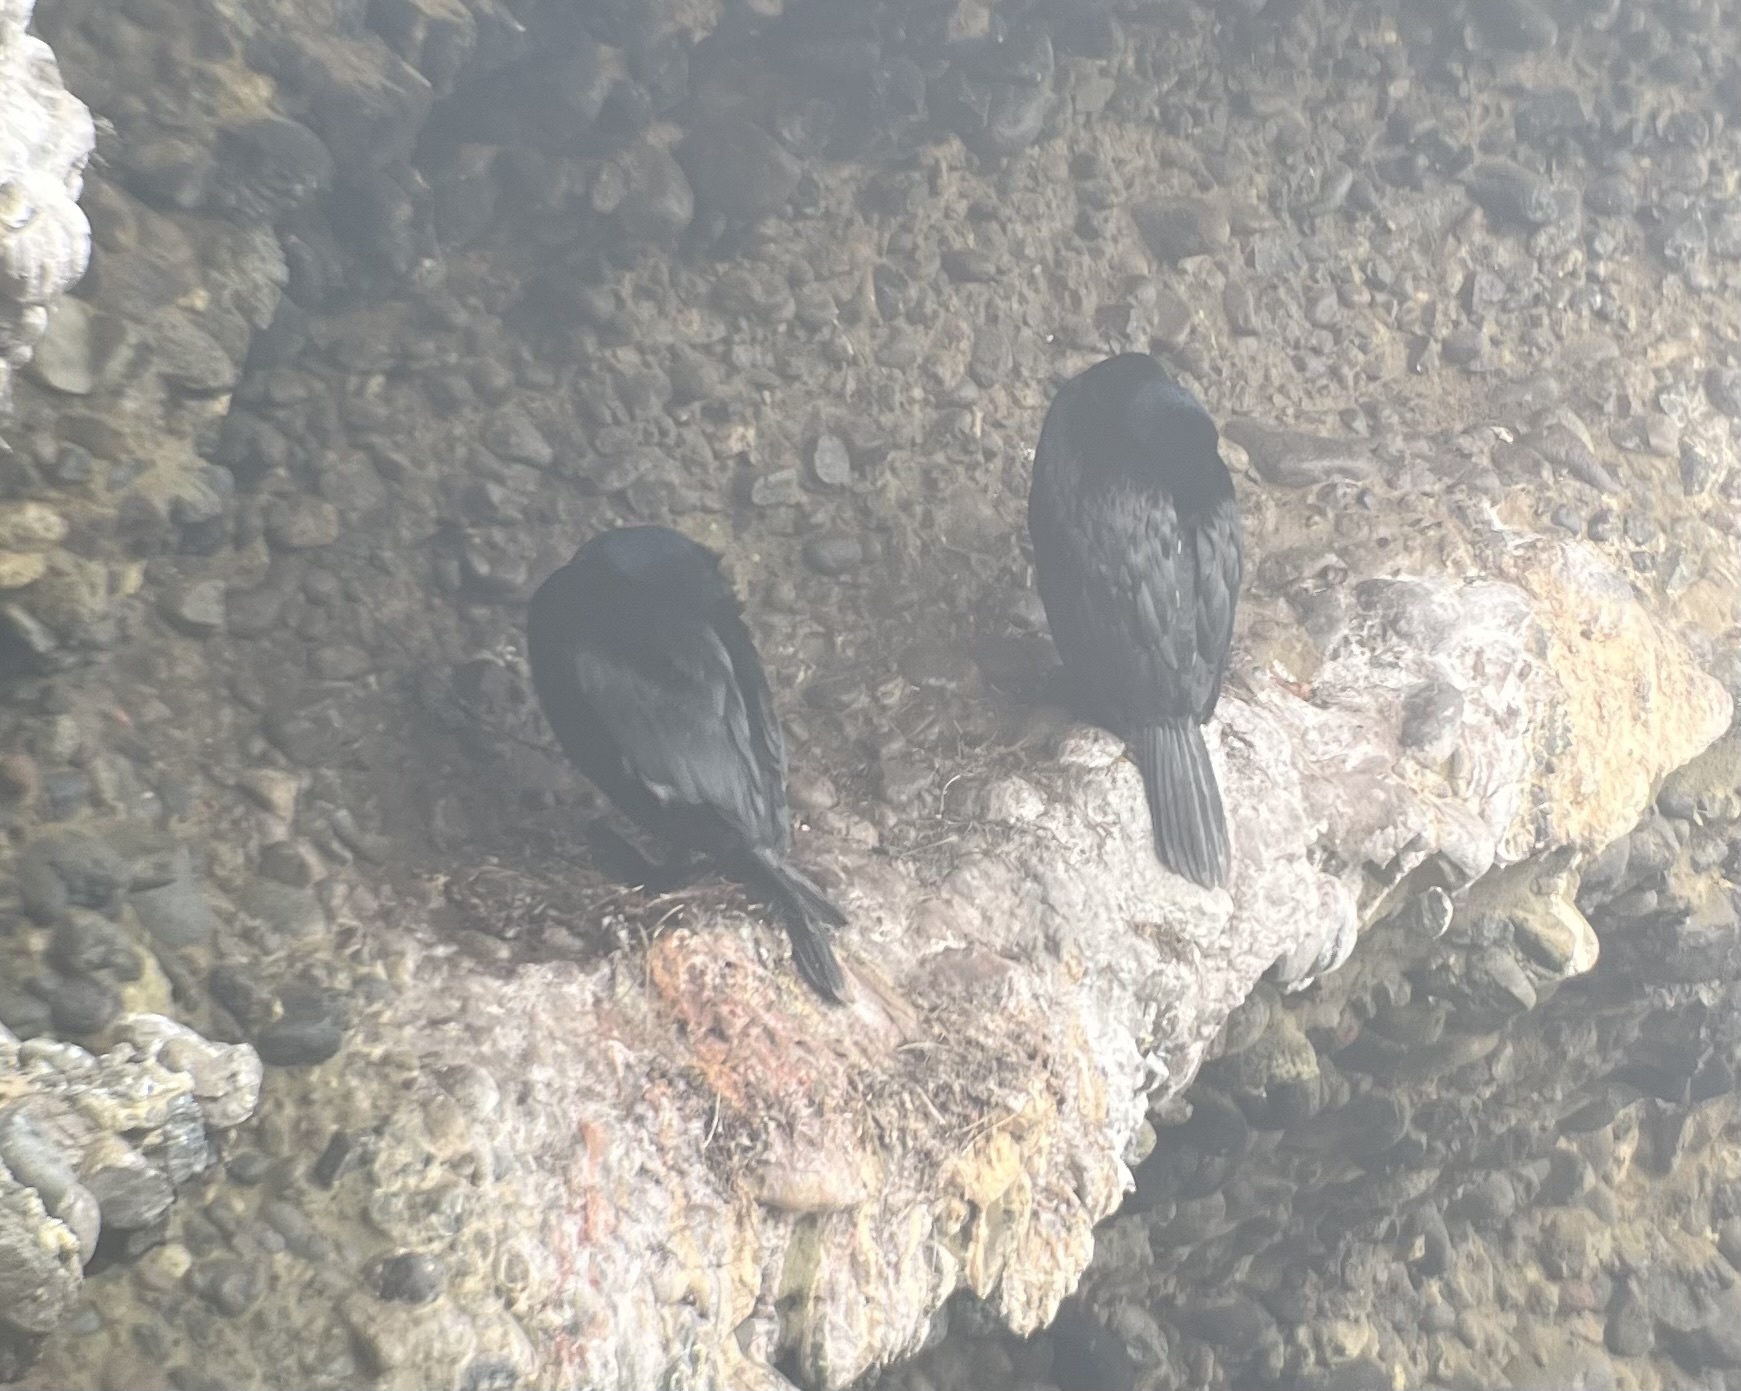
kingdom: Animalia
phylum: Chordata
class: Aves
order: Suliformes
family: Phalacrocoracidae
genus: Phalacrocorax
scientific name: Phalacrocorax pelagicus
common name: Pelagic cormorant
